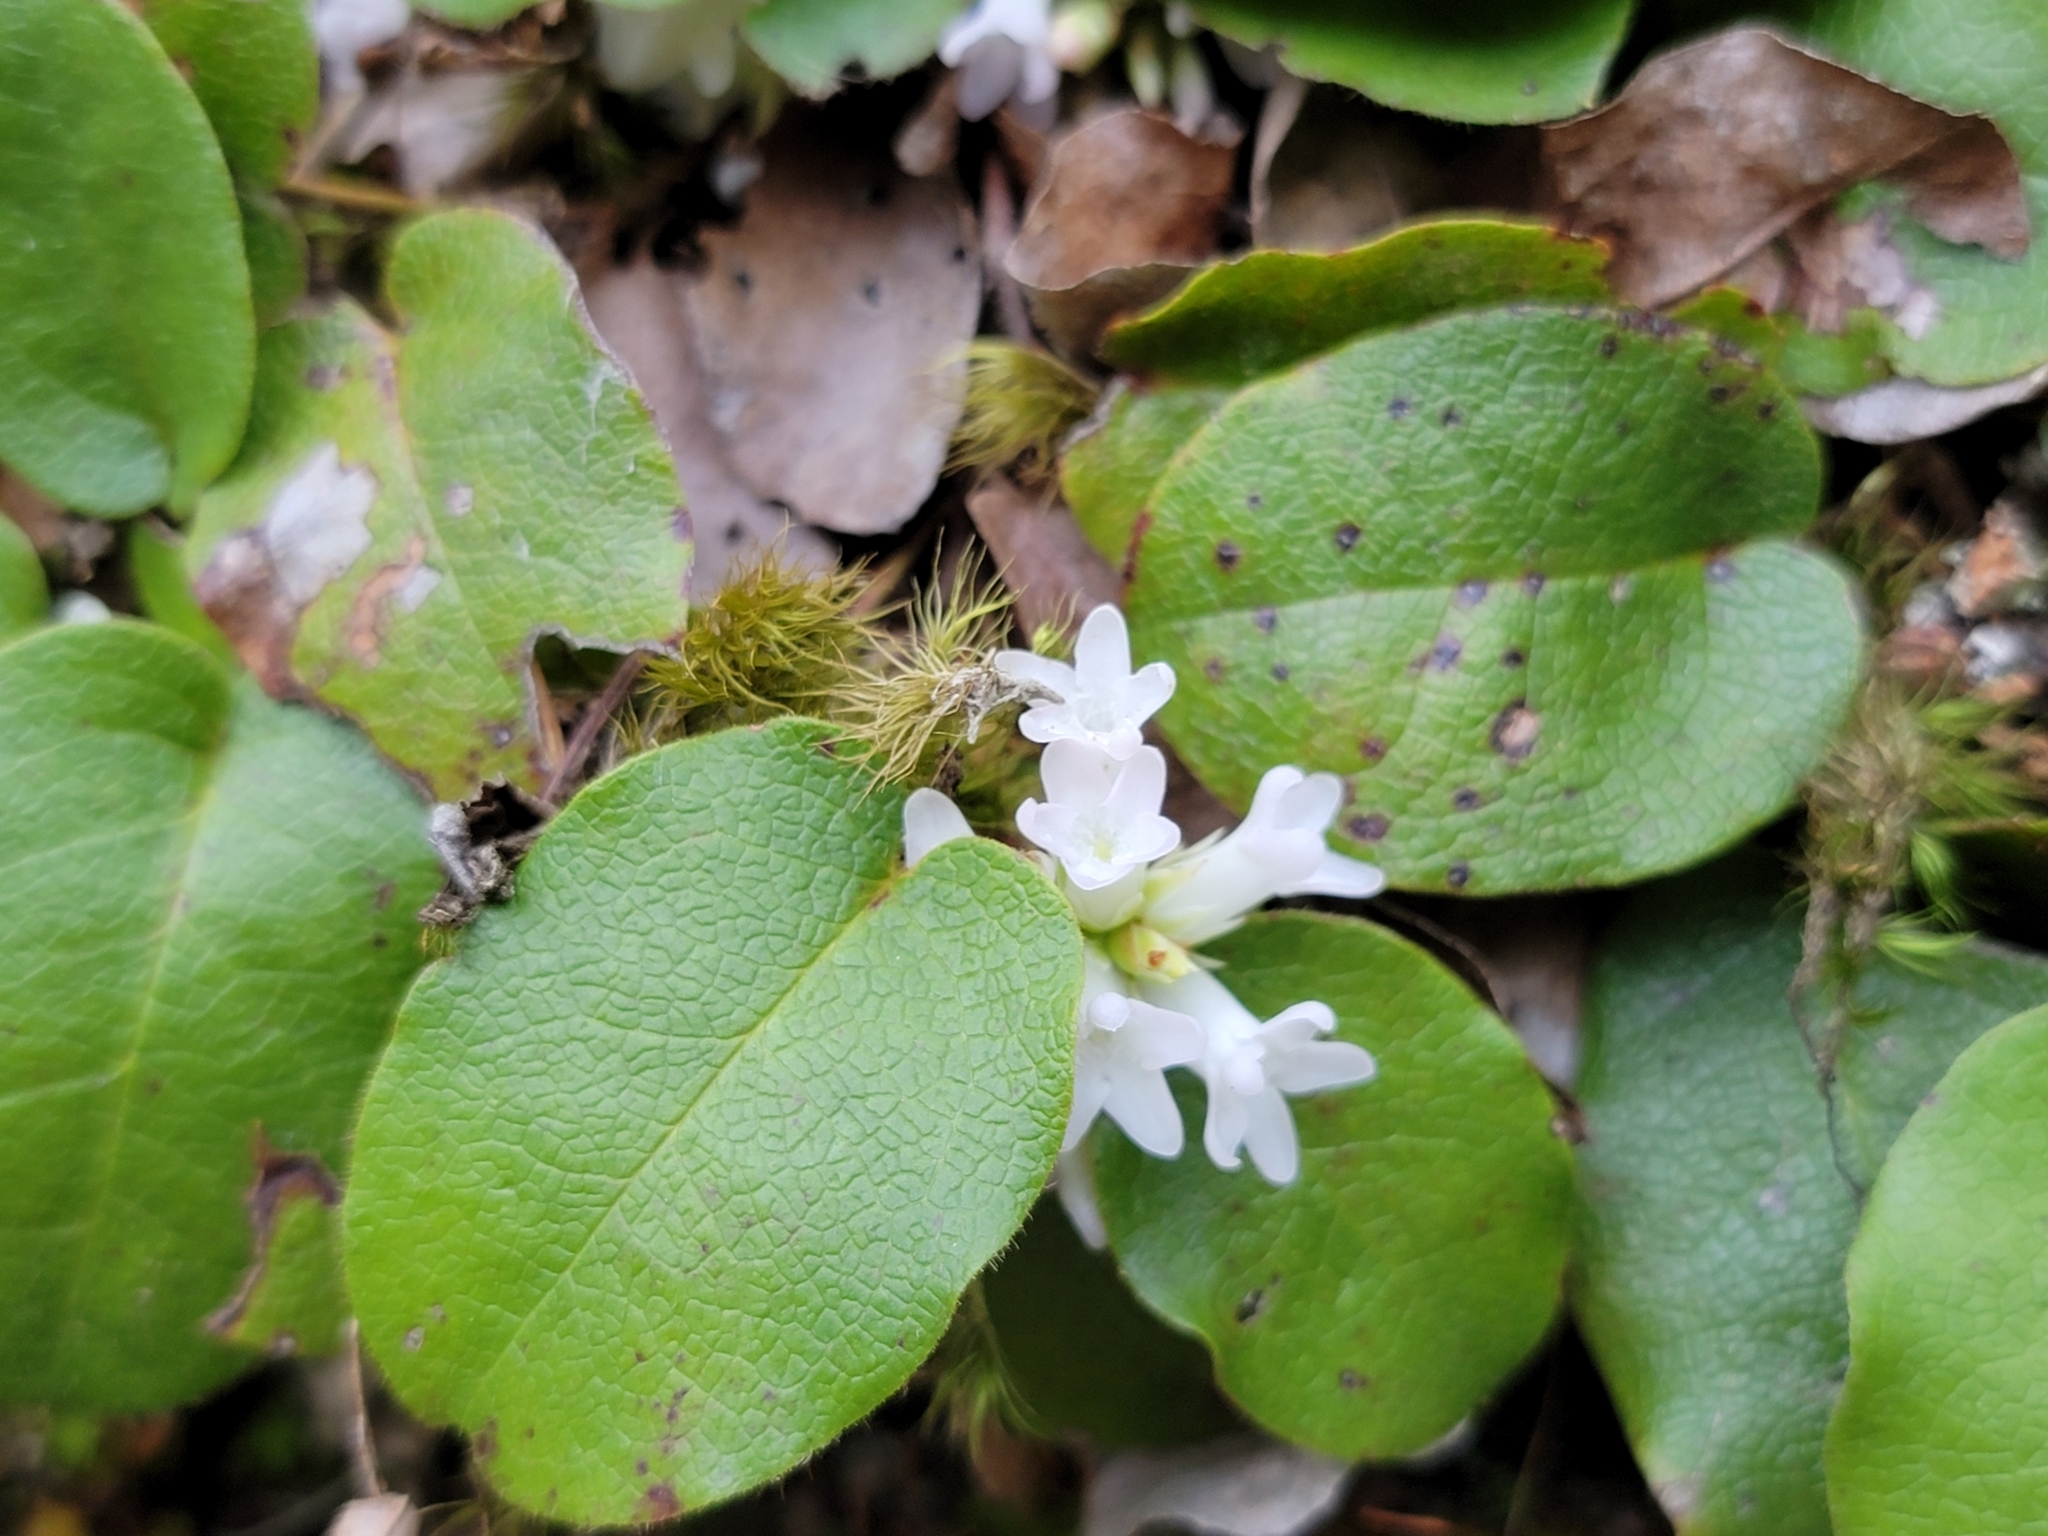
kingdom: Plantae
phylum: Tracheophyta
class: Magnoliopsida
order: Ericales
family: Ericaceae
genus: Epigaea
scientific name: Epigaea repens
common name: Gravelroot
